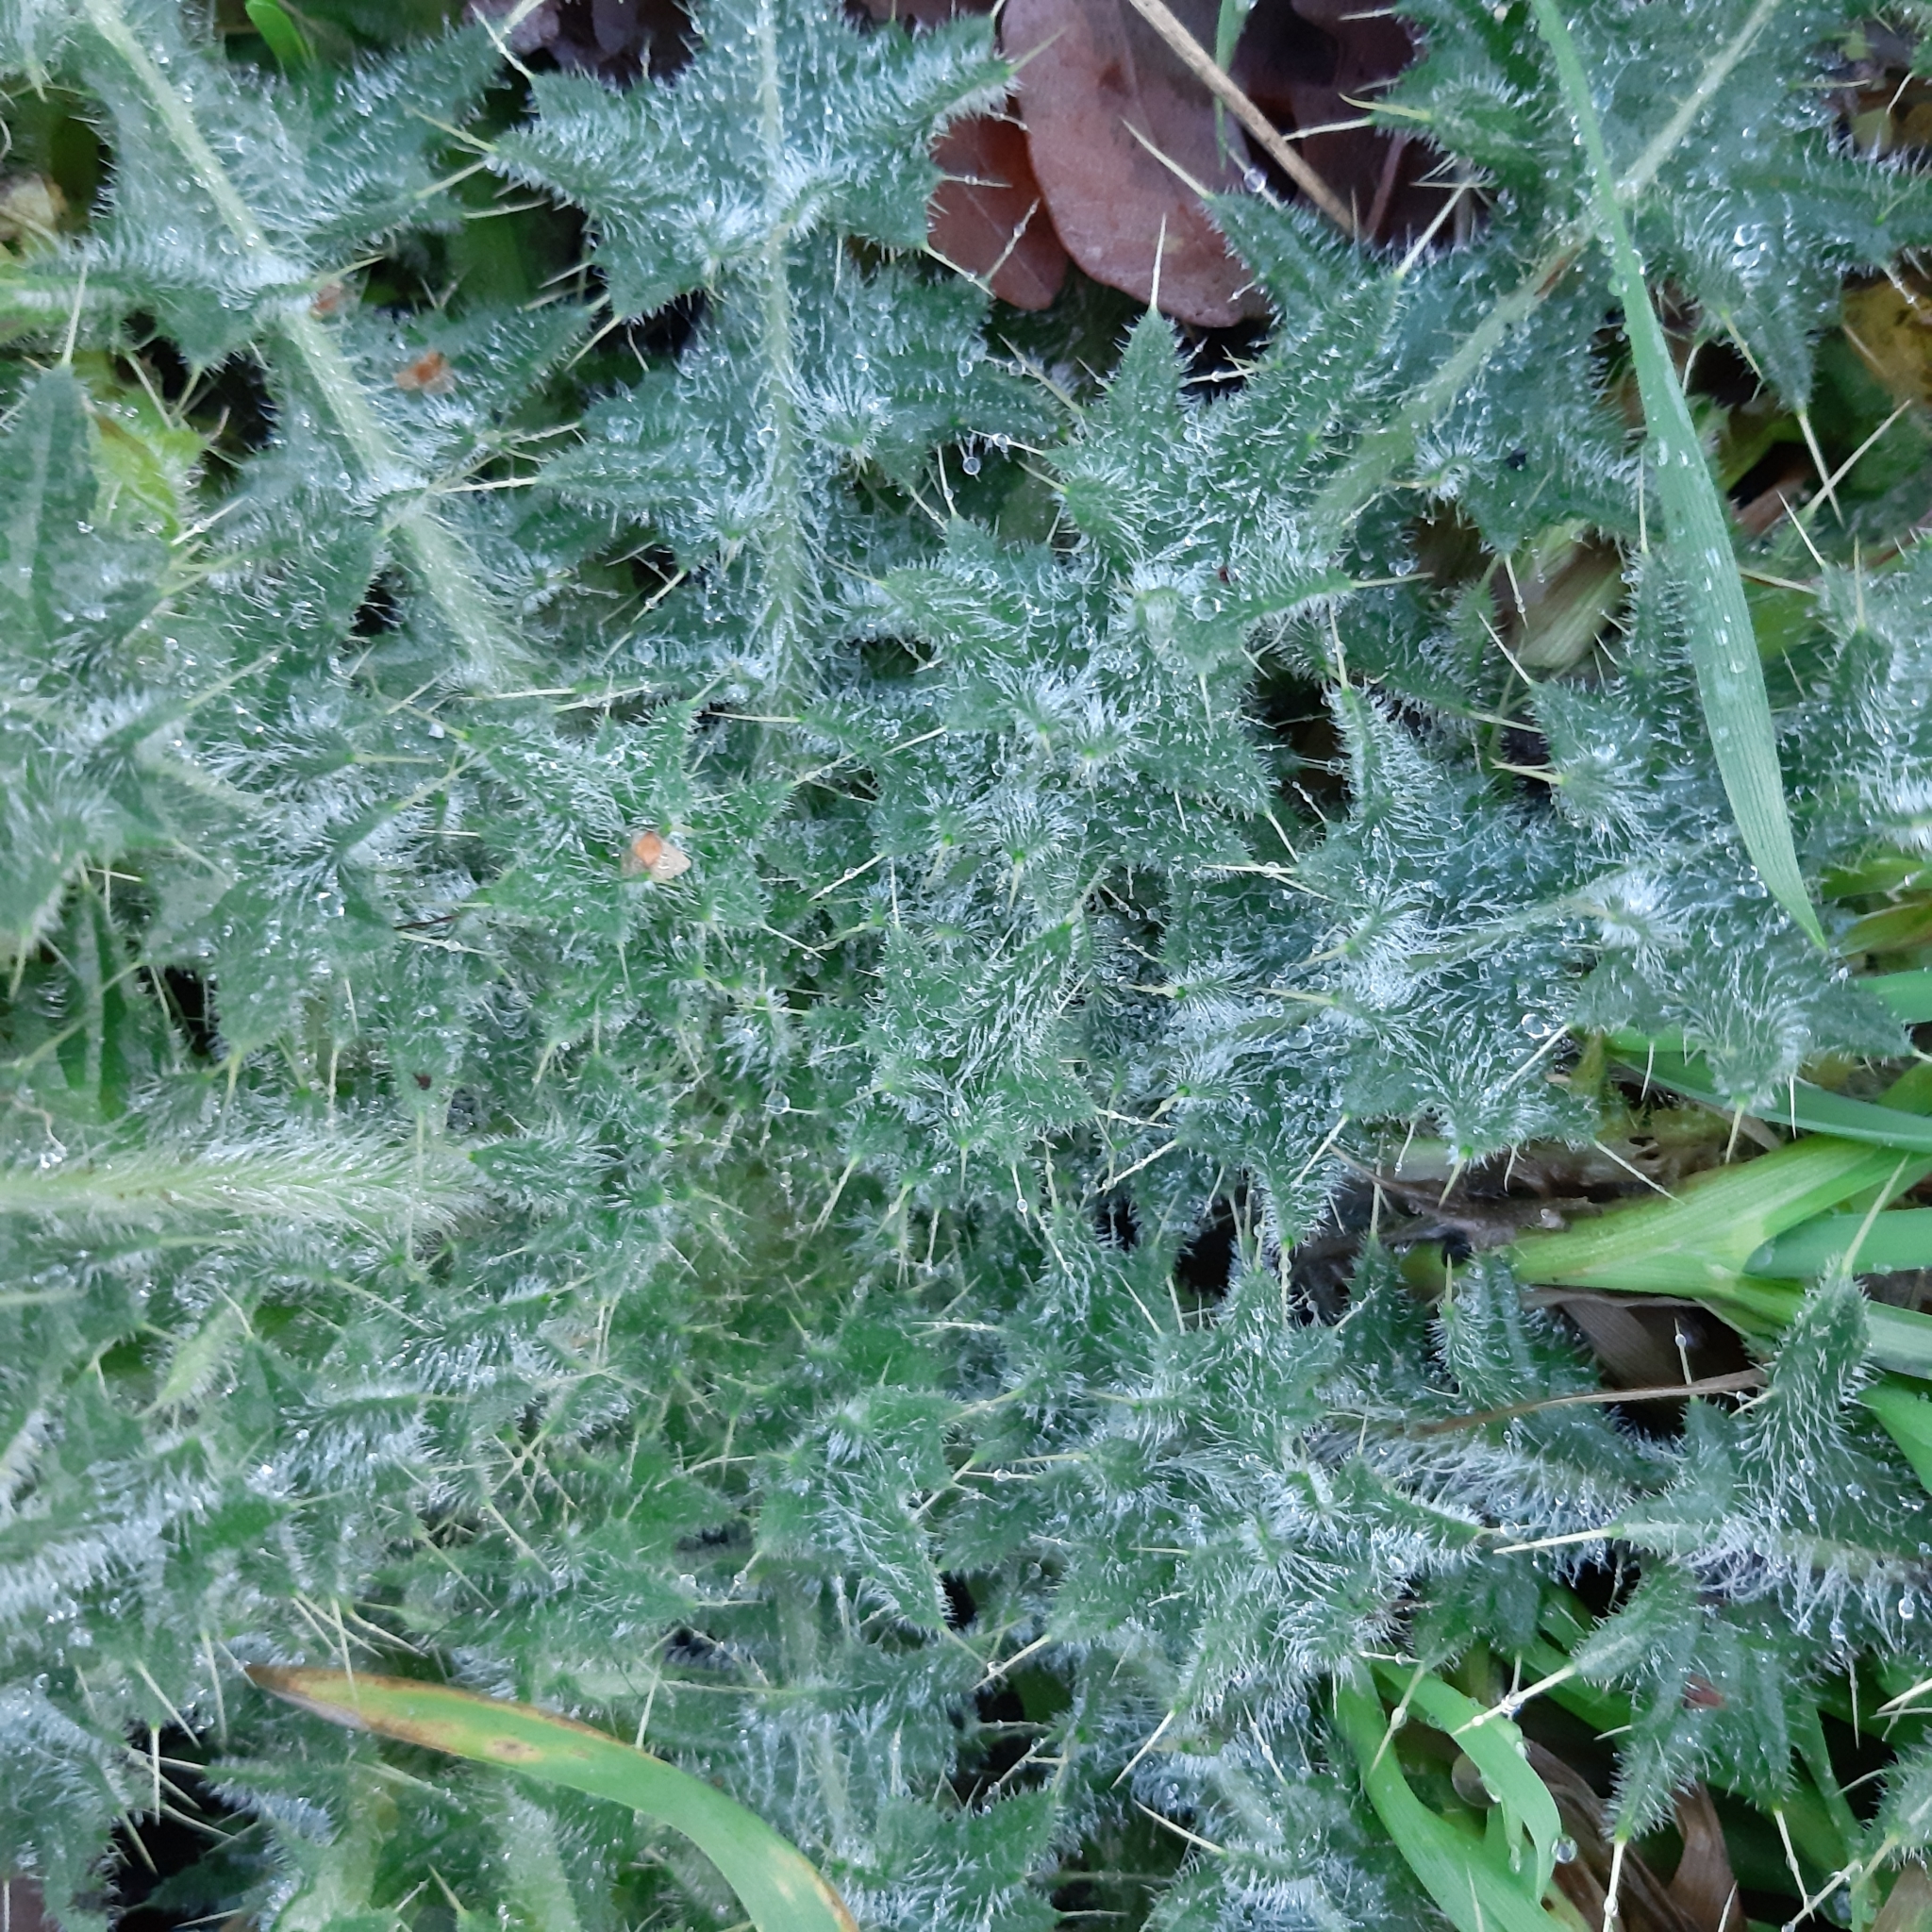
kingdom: Plantae
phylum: Tracheophyta
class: Magnoliopsida
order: Asterales
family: Asteraceae
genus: Cirsium
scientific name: Cirsium vulgare
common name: Bull thistle
